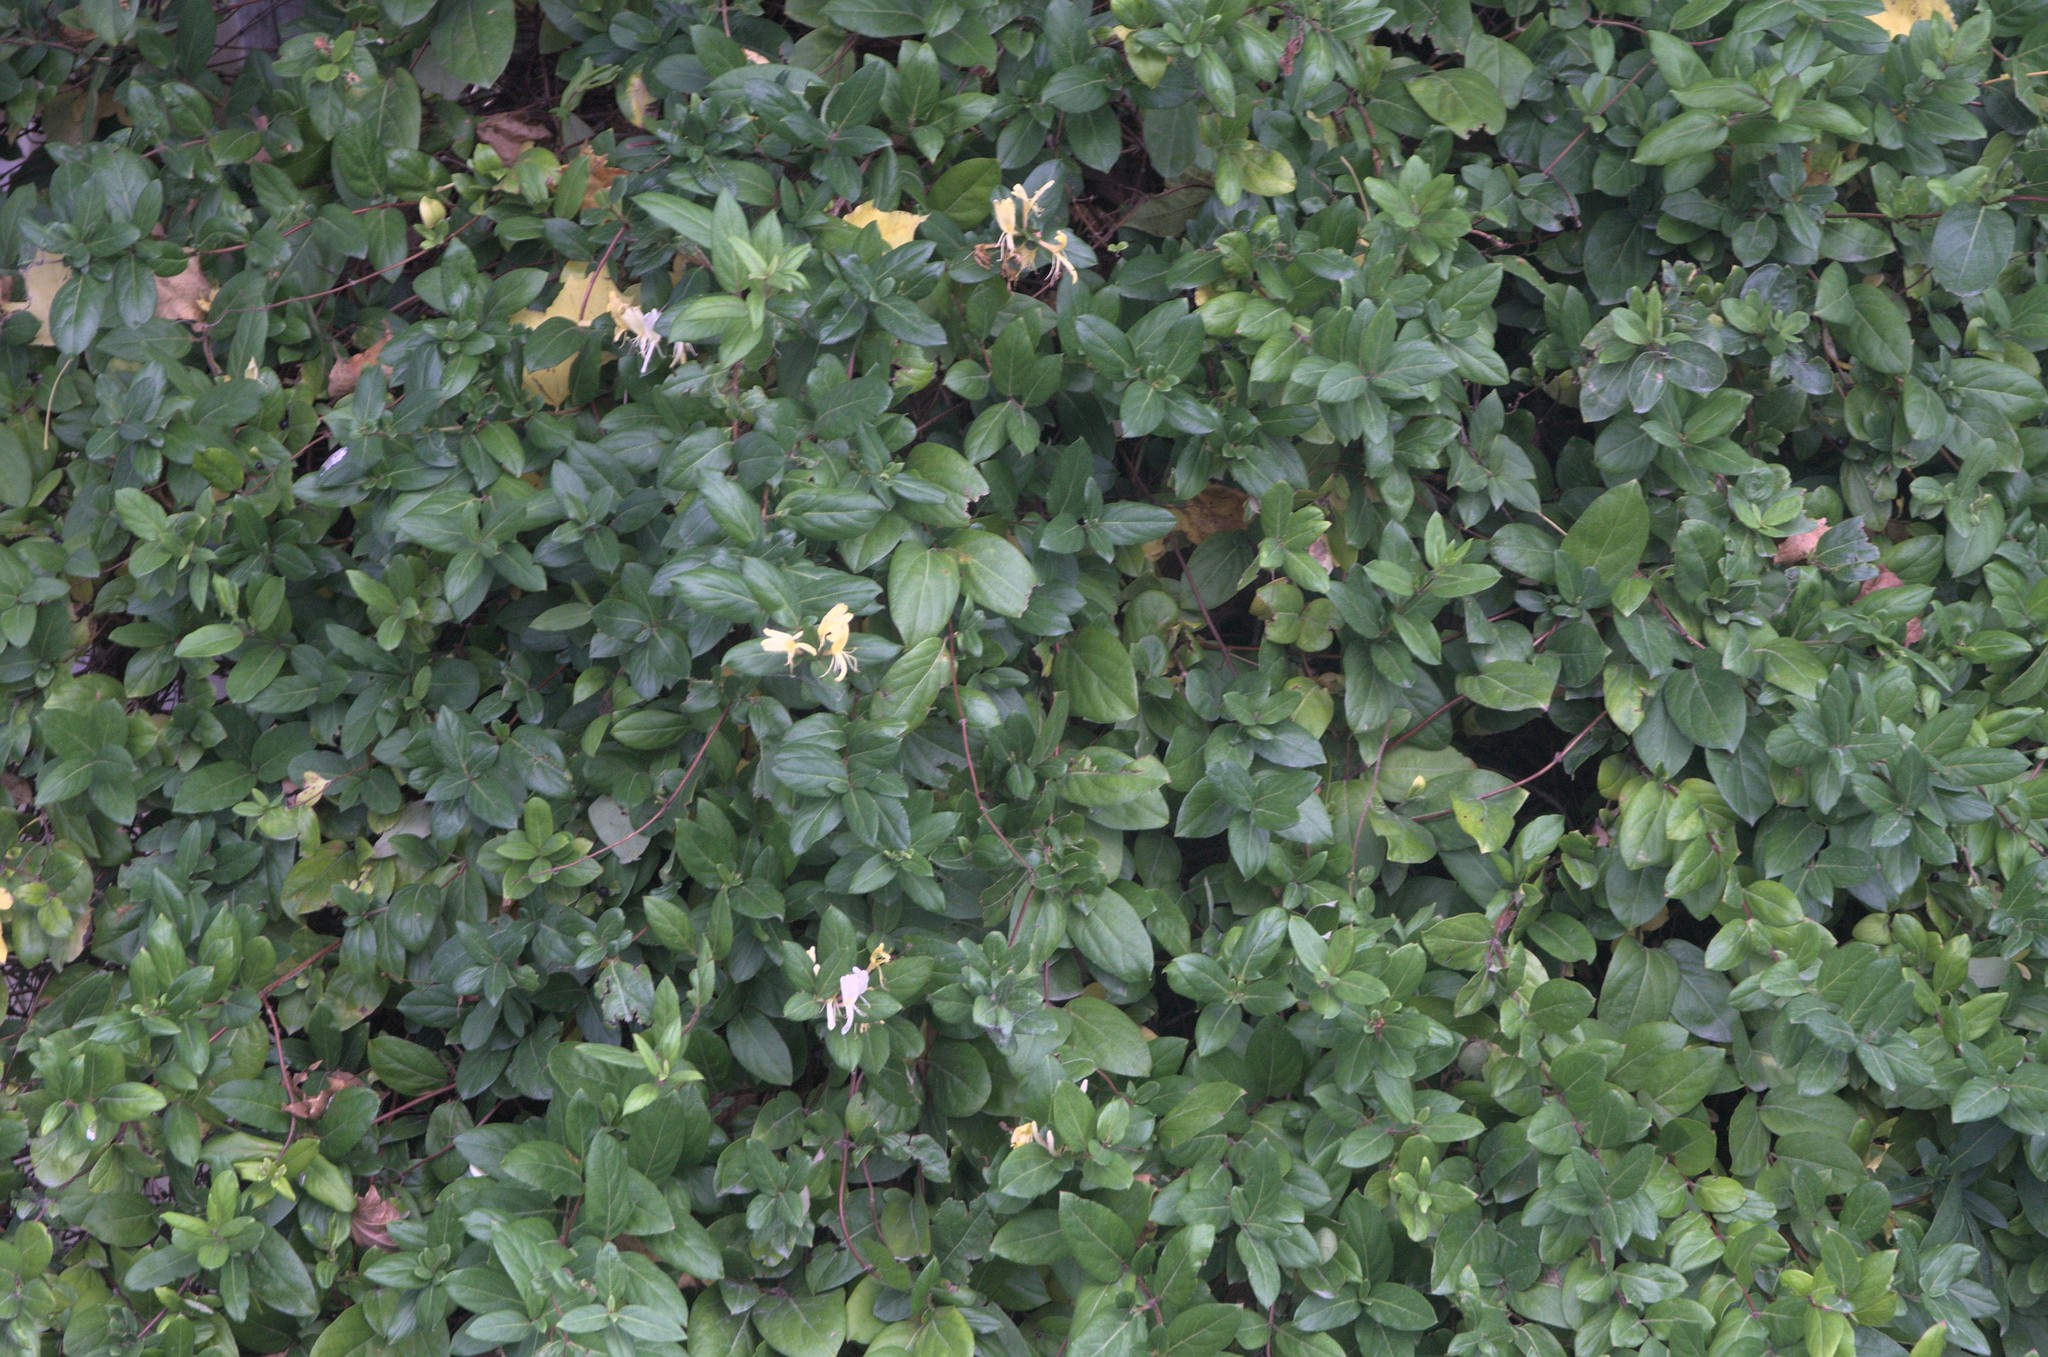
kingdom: Plantae
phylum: Tracheophyta
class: Magnoliopsida
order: Dipsacales
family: Caprifoliaceae
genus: Lonicera
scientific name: Lonicera japonica
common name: Japanese honeysuckle
